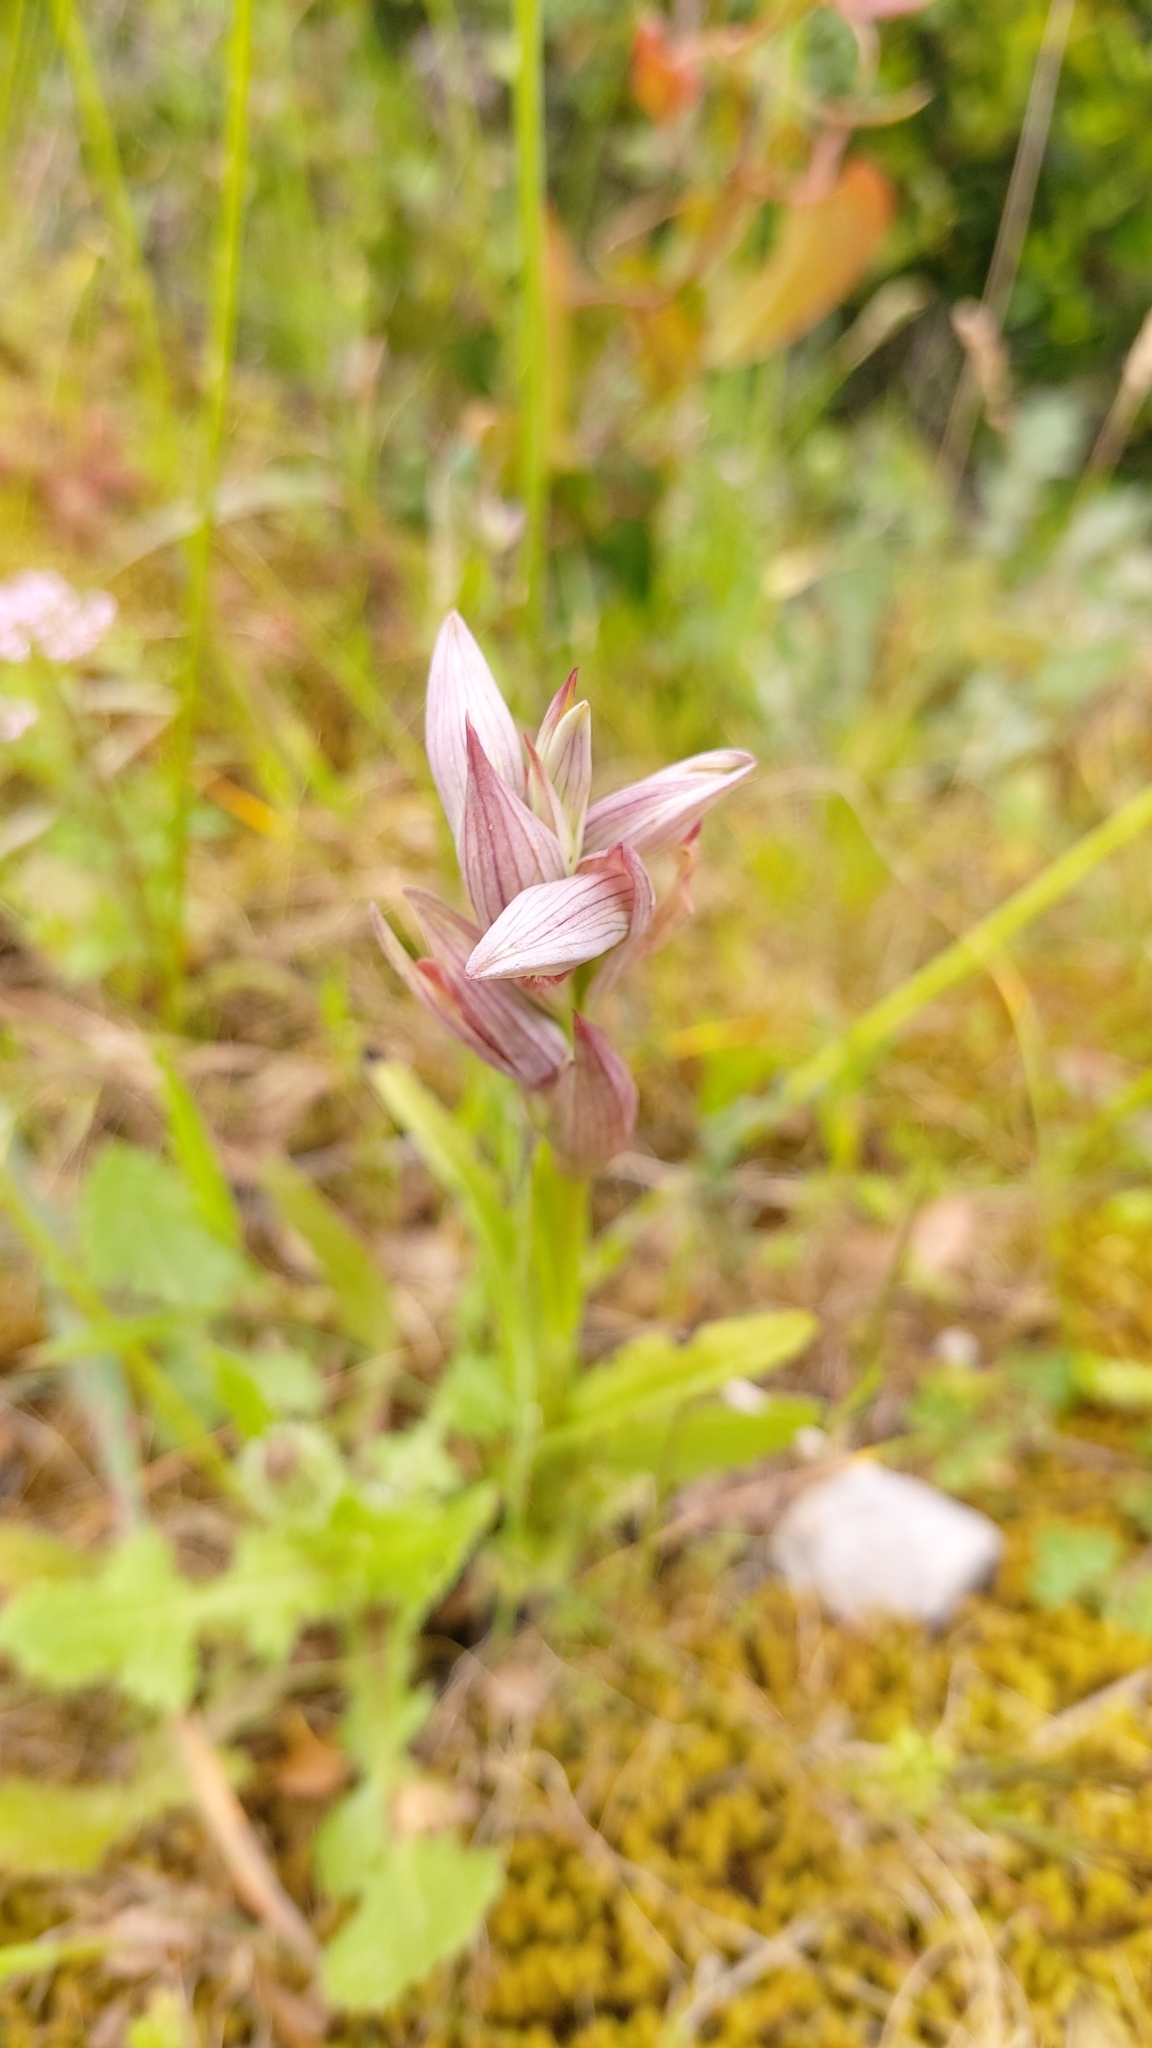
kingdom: Plantae
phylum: Tracheophyta
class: Liliopsida
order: Asparagales
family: Orchidaceae
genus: Serapias
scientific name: Serapias parviflora
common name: Small-flowered tongue-orchid
